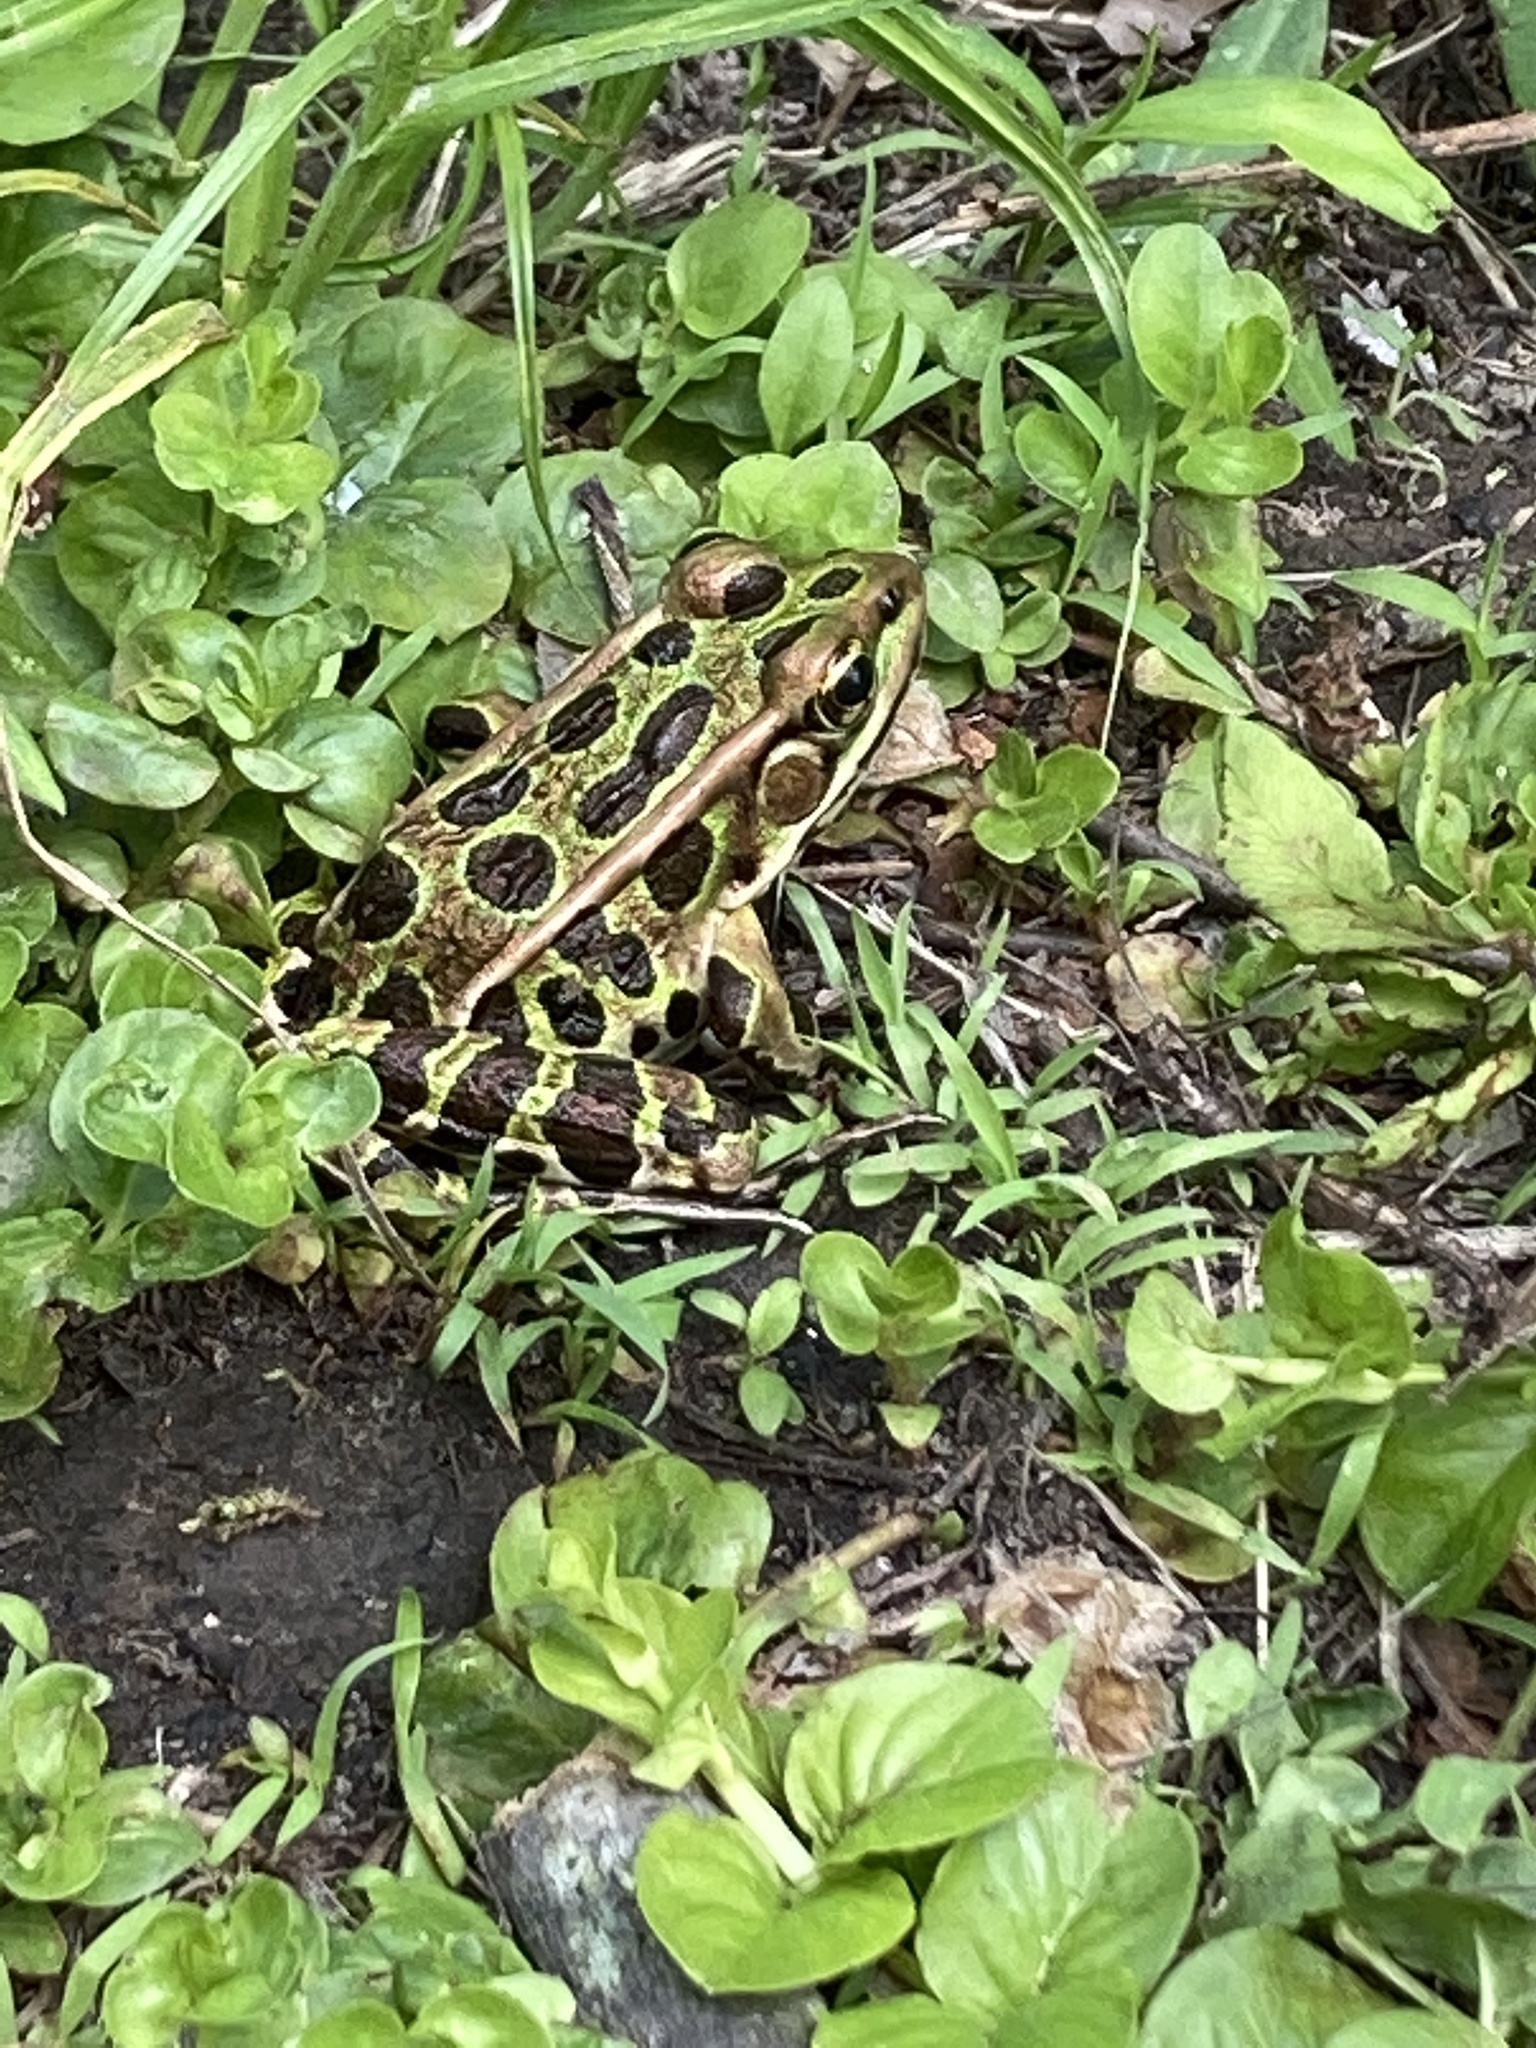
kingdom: Animalia
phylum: Chordata
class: Amphibia
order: Anura
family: Ranidae
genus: Lithobates
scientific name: Lithobates pipiens
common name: Northern leopard frog
